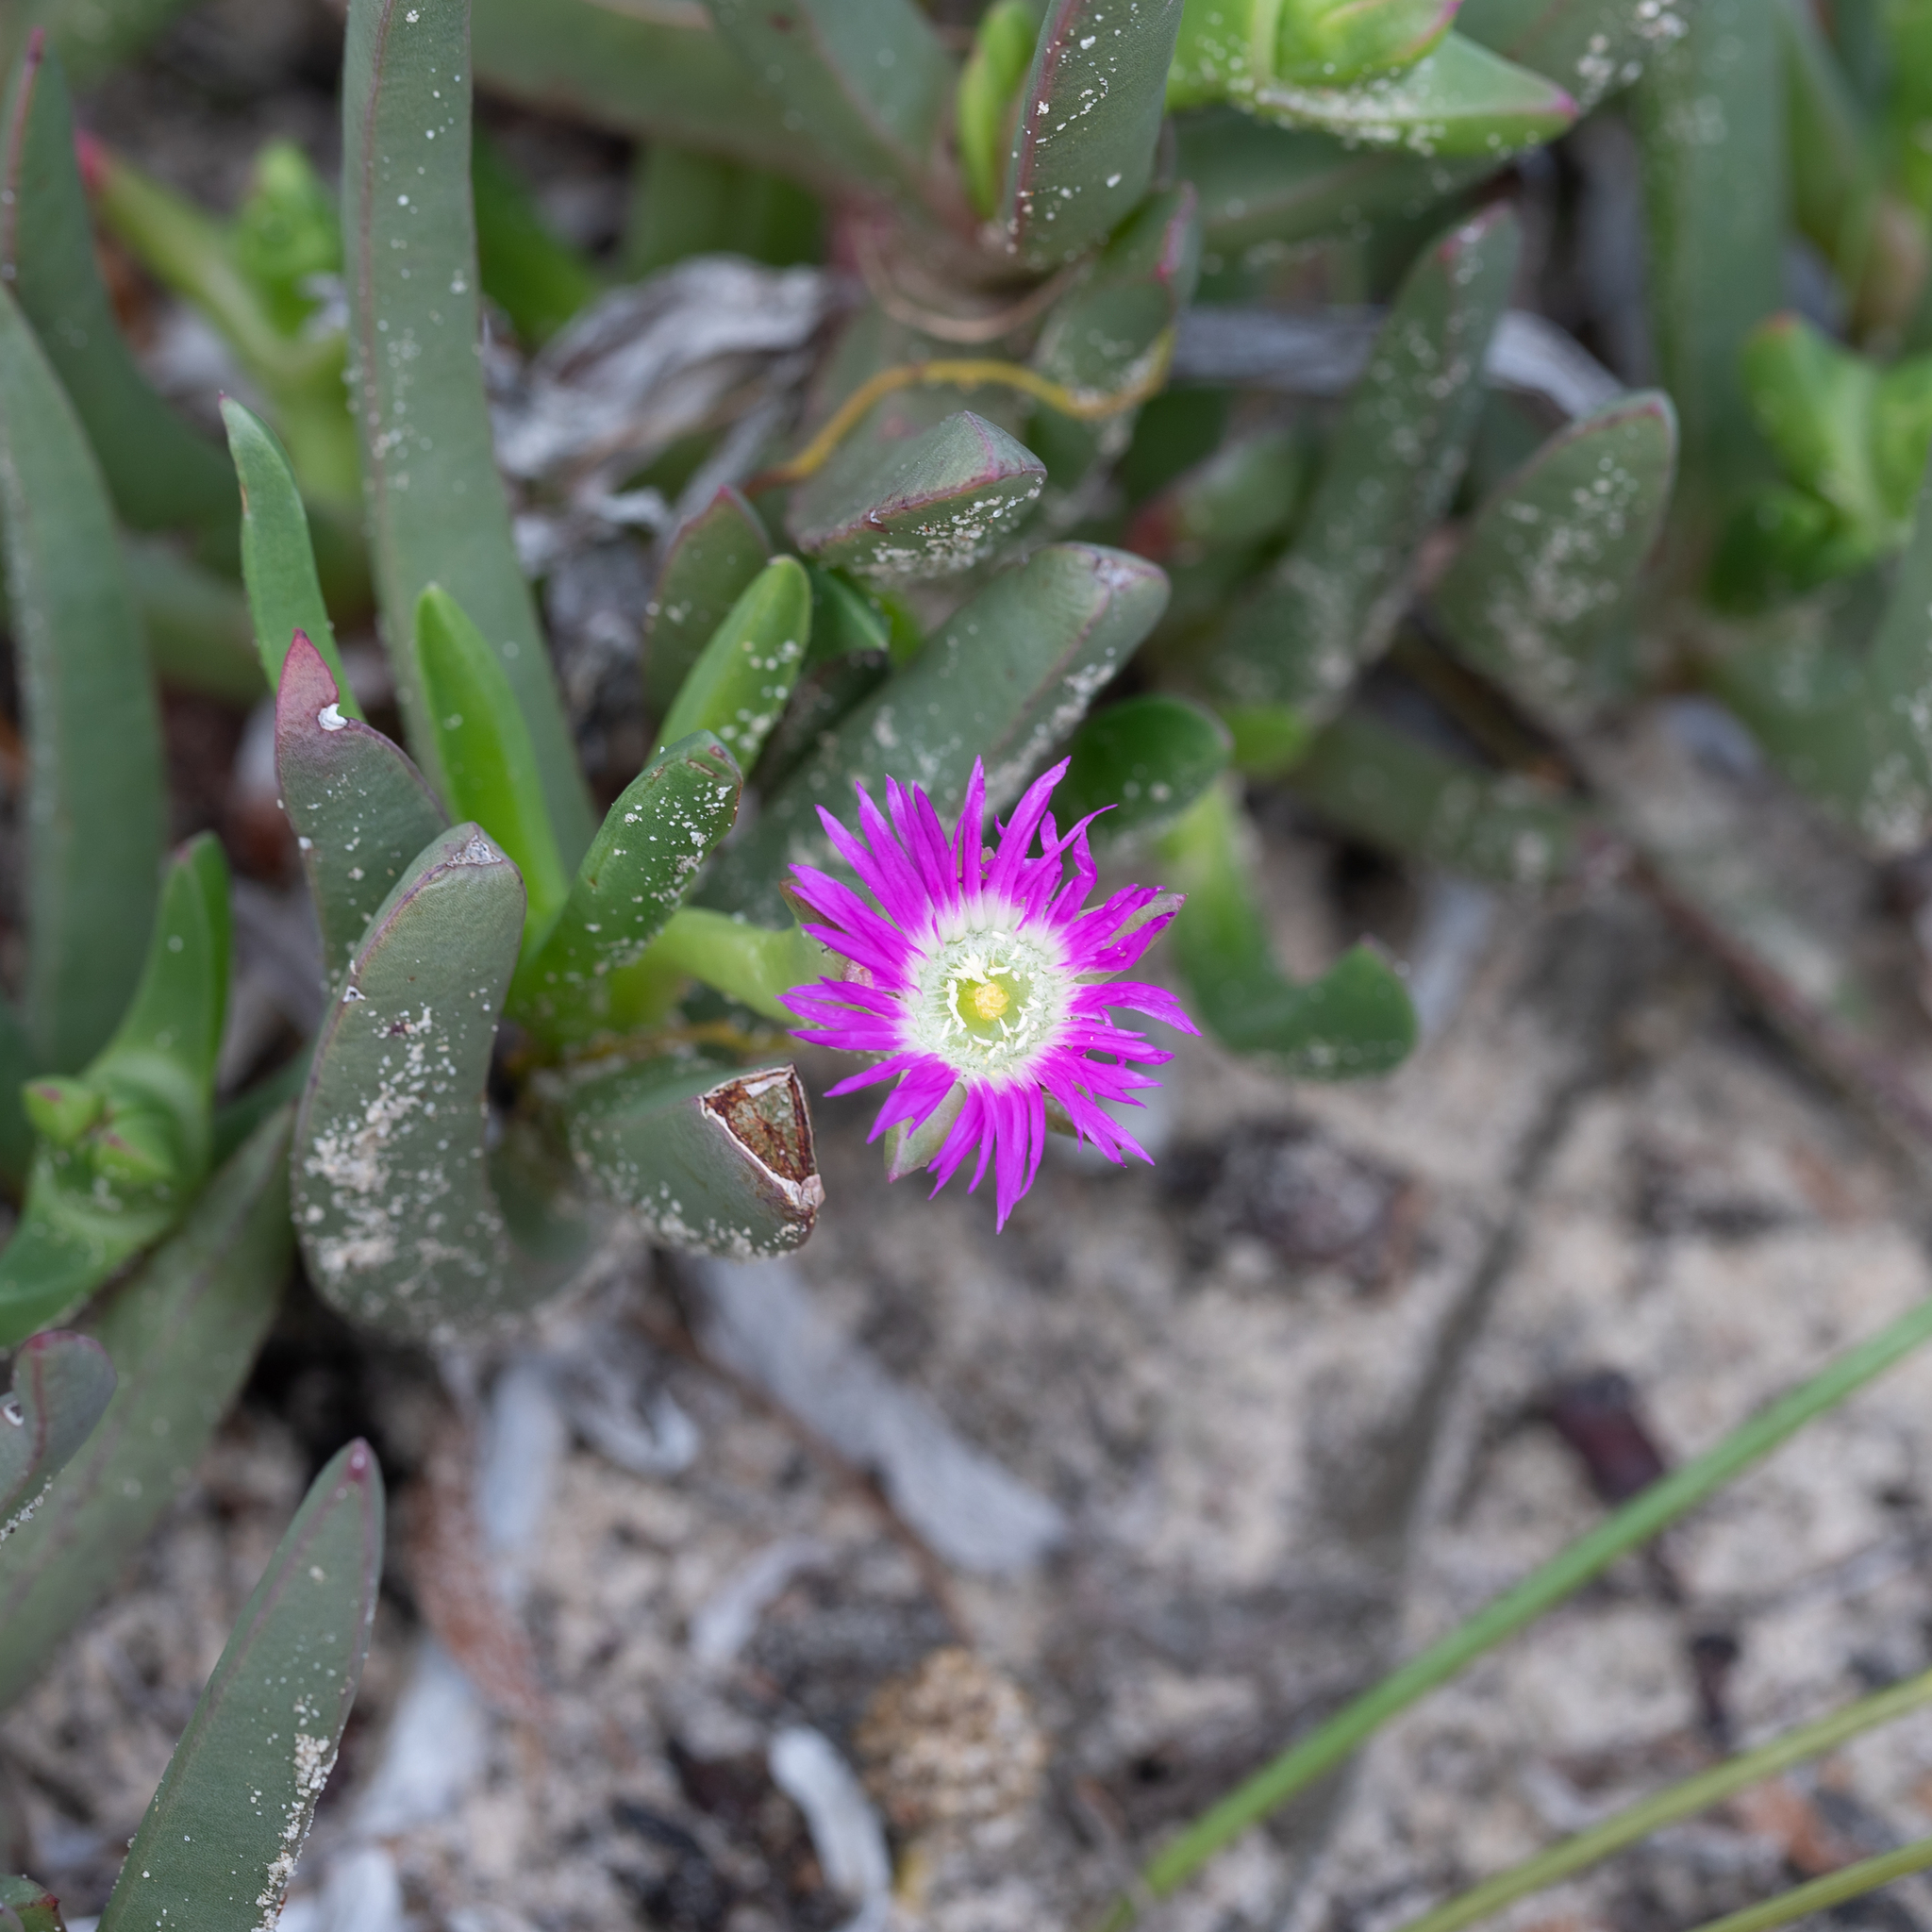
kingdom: Plantae
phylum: Tracheophyta
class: Magnoliopsida
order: Caryophyllales
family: Aizoaceae
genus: Carpobrotus
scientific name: Carpobrotus modestus
